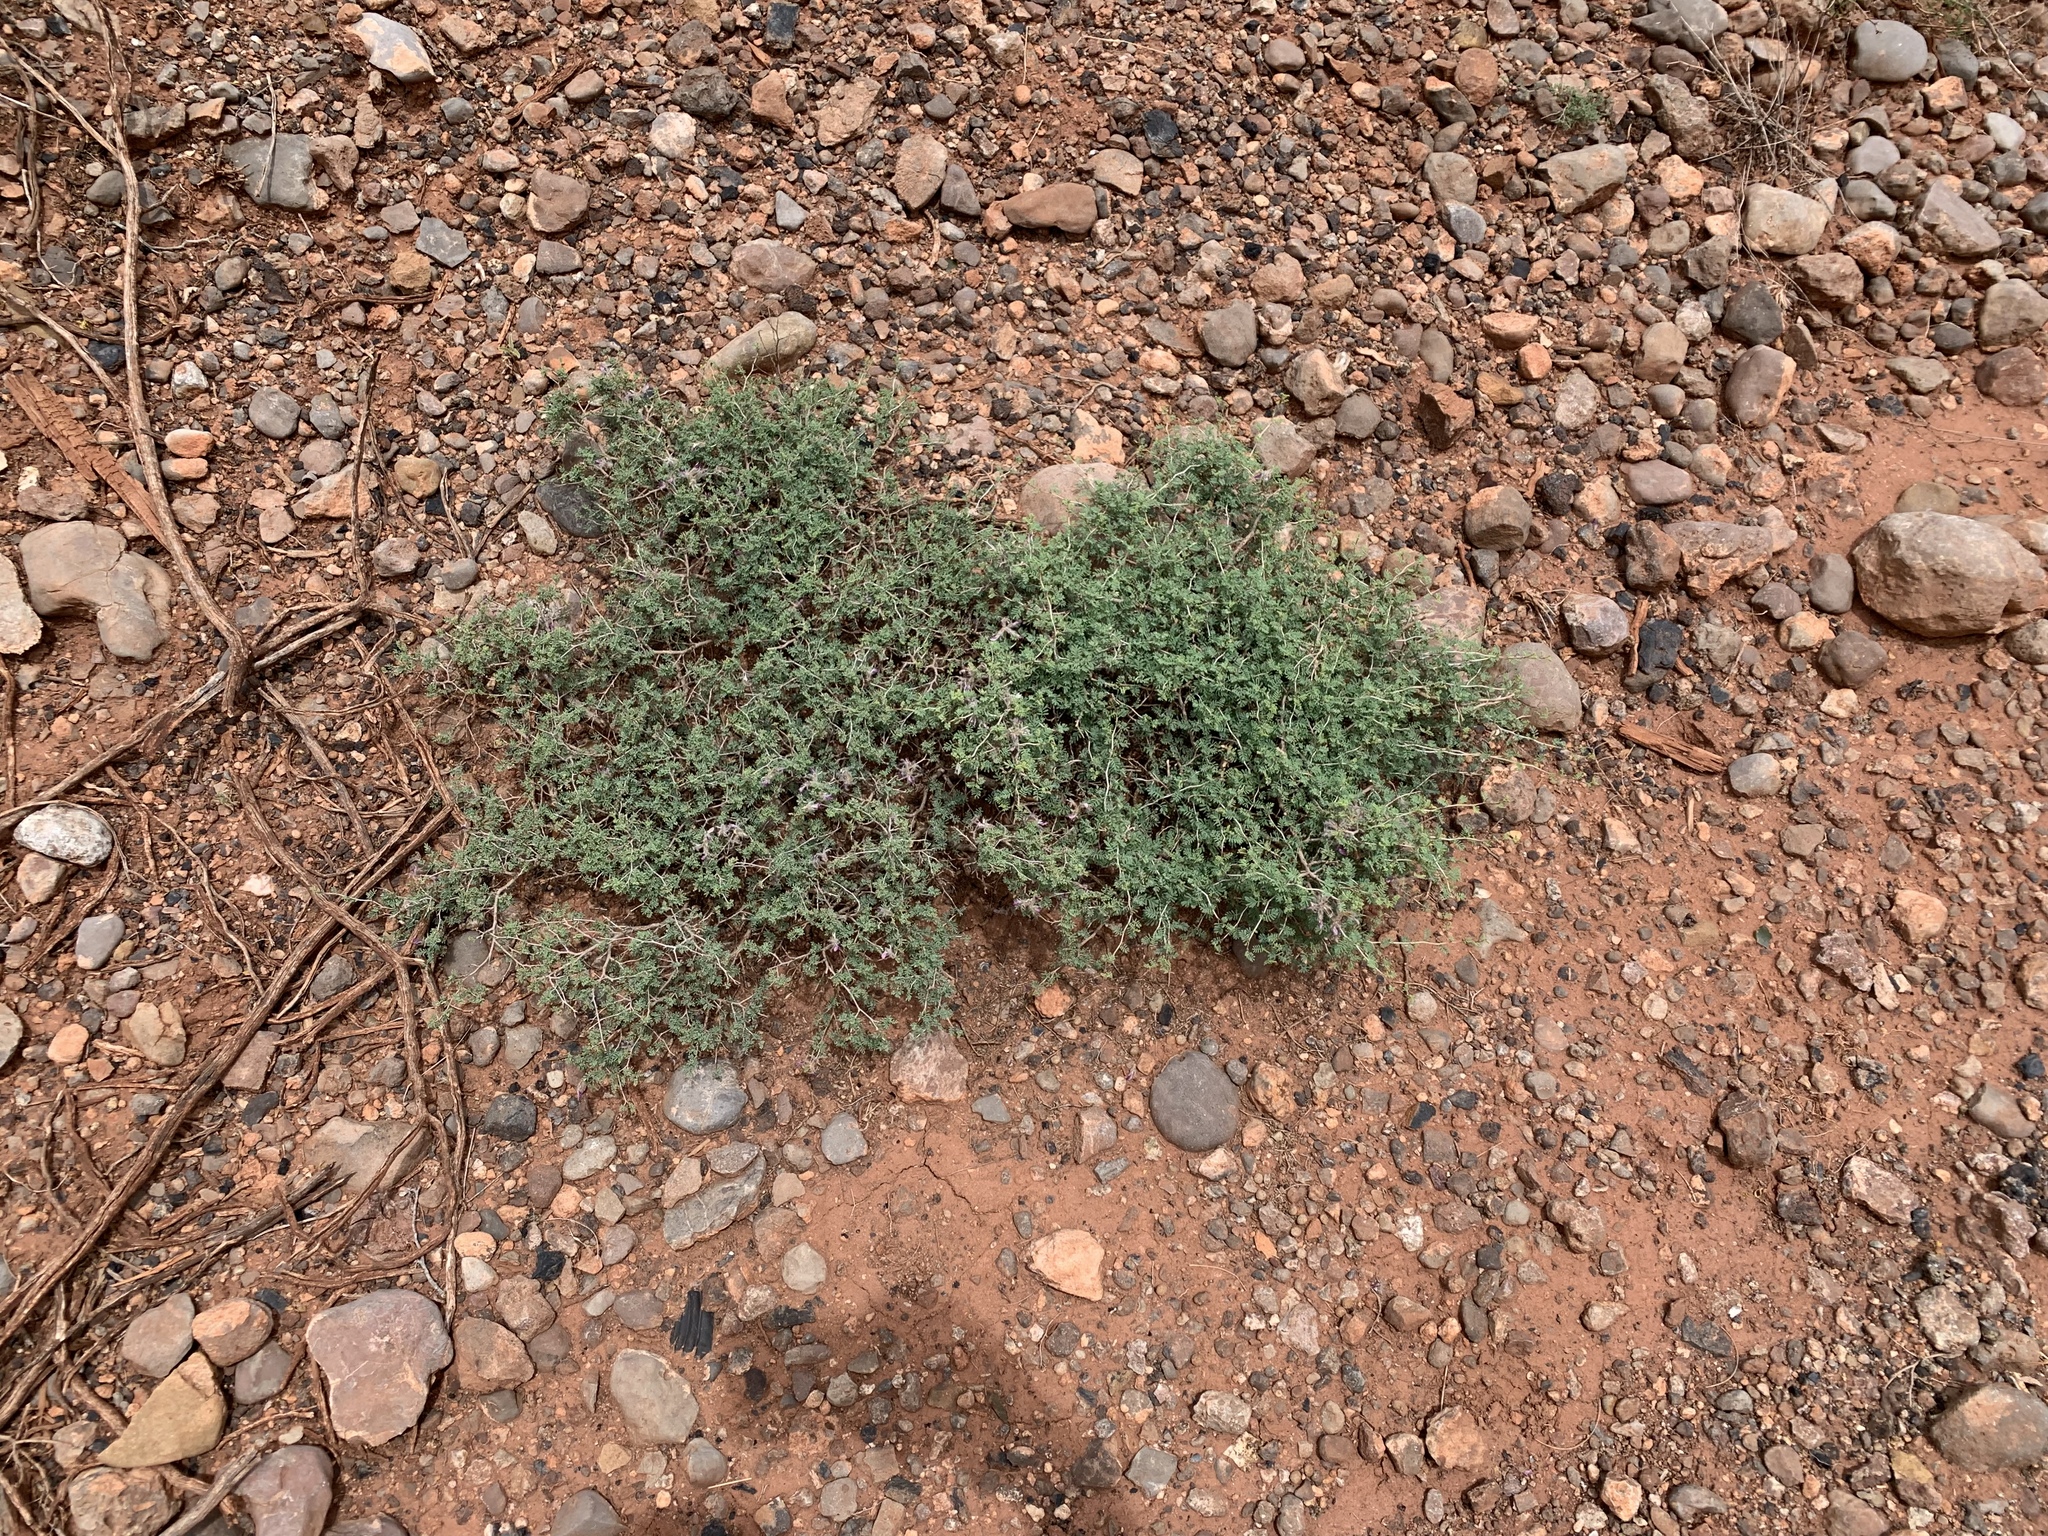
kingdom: Plantae
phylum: Tracheophyta
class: Magnoliopsida
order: Fabales
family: Fabaceae
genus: Dalea
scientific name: Dalea formosa
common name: Feather-plume dalea
